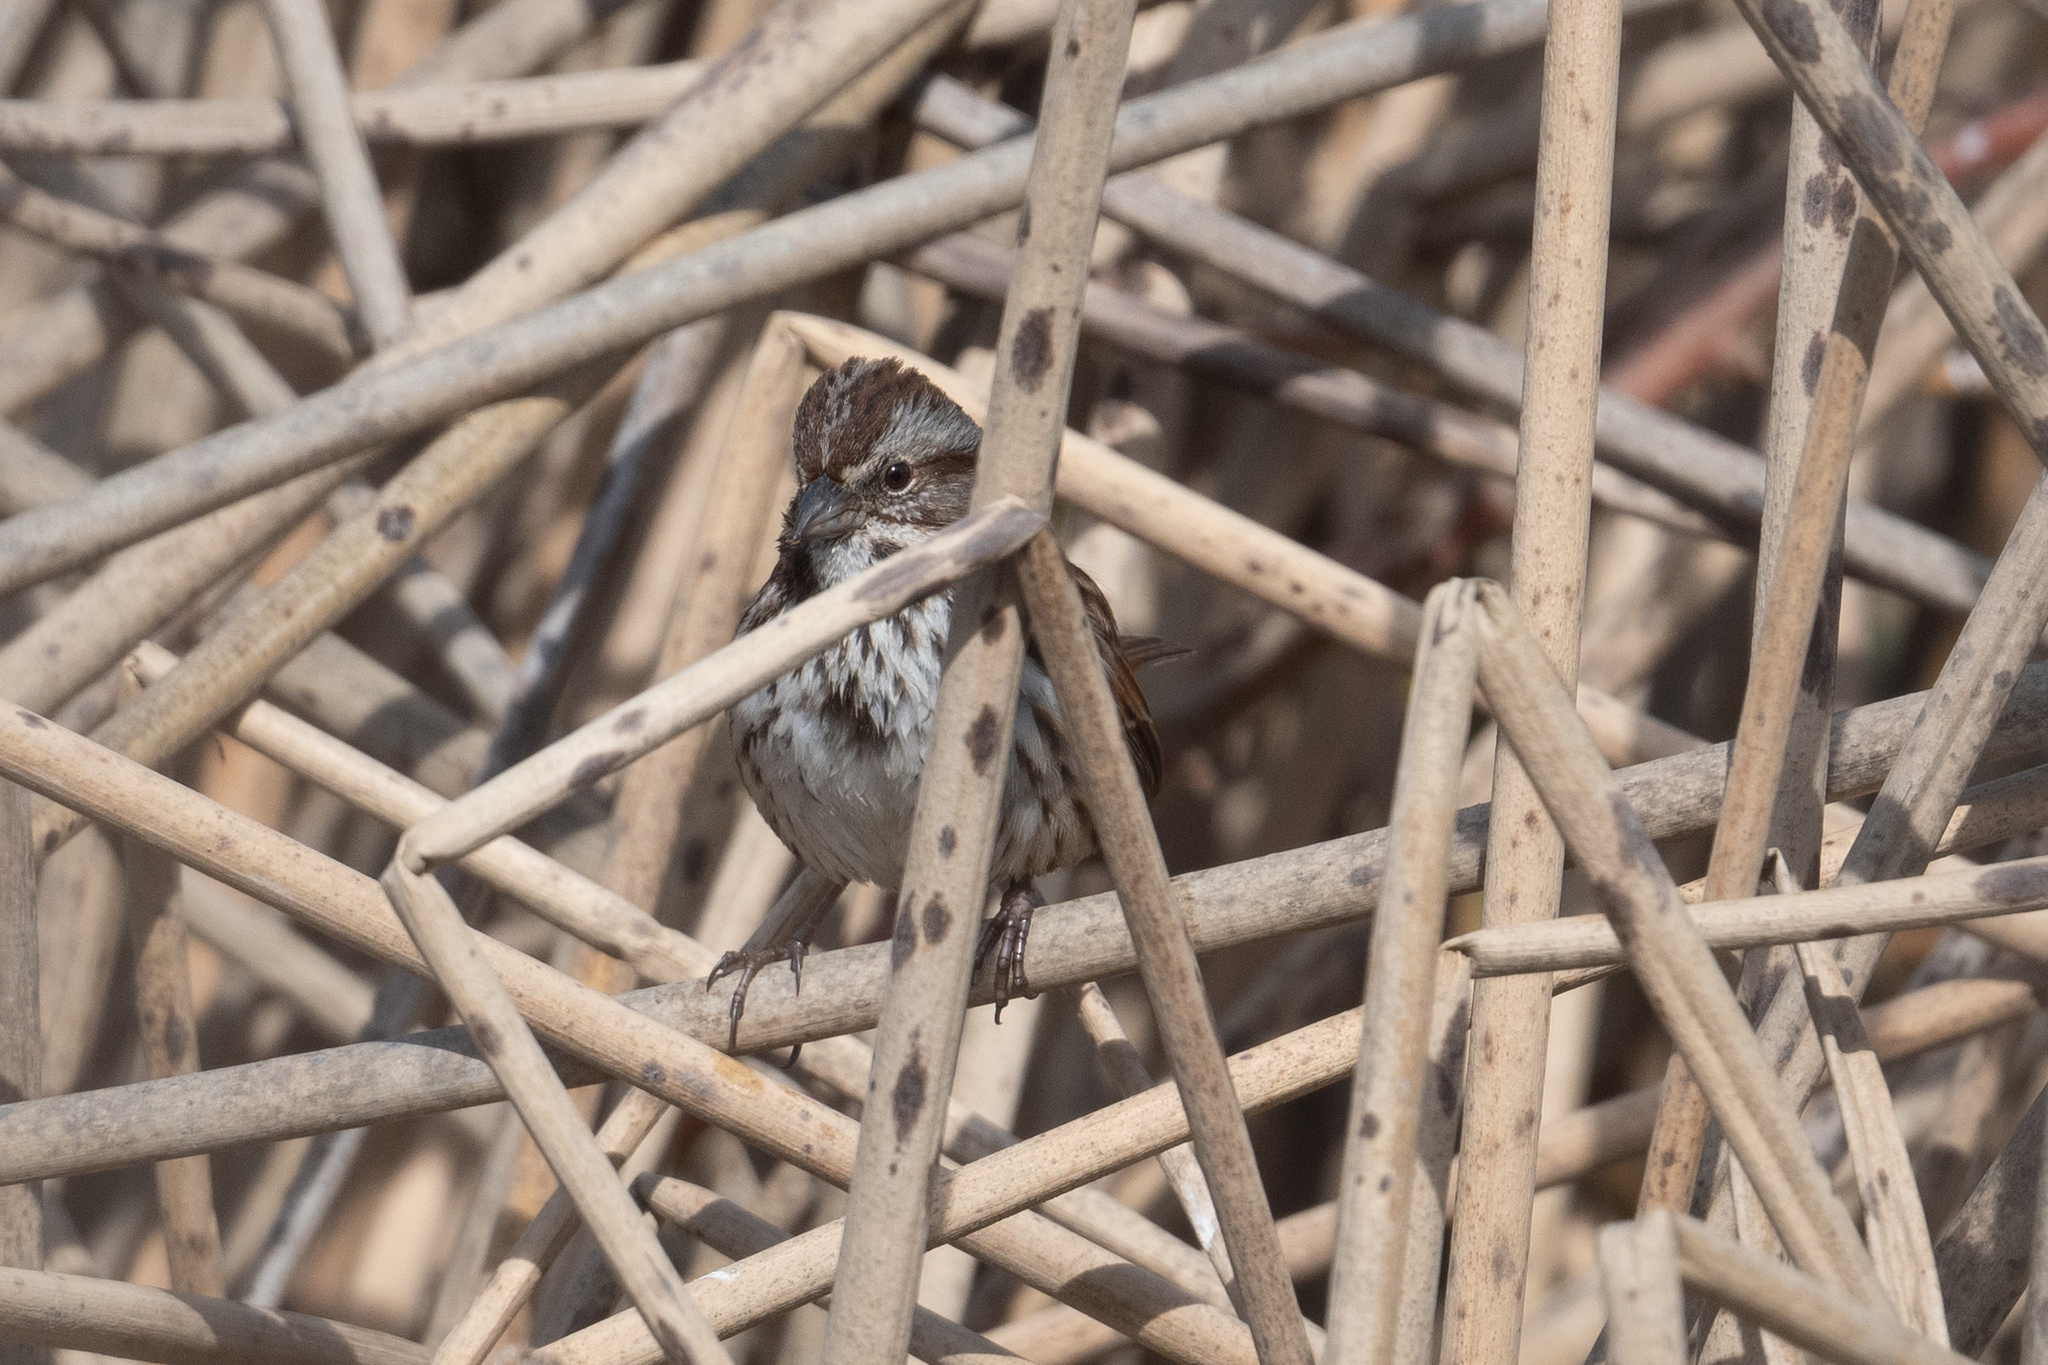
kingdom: Animalia
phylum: Chordata
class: Aves
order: Passeriformes
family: Passerellidae
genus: Melospiza
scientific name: Melospiza lincolnii
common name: Lincoln's sparrow
